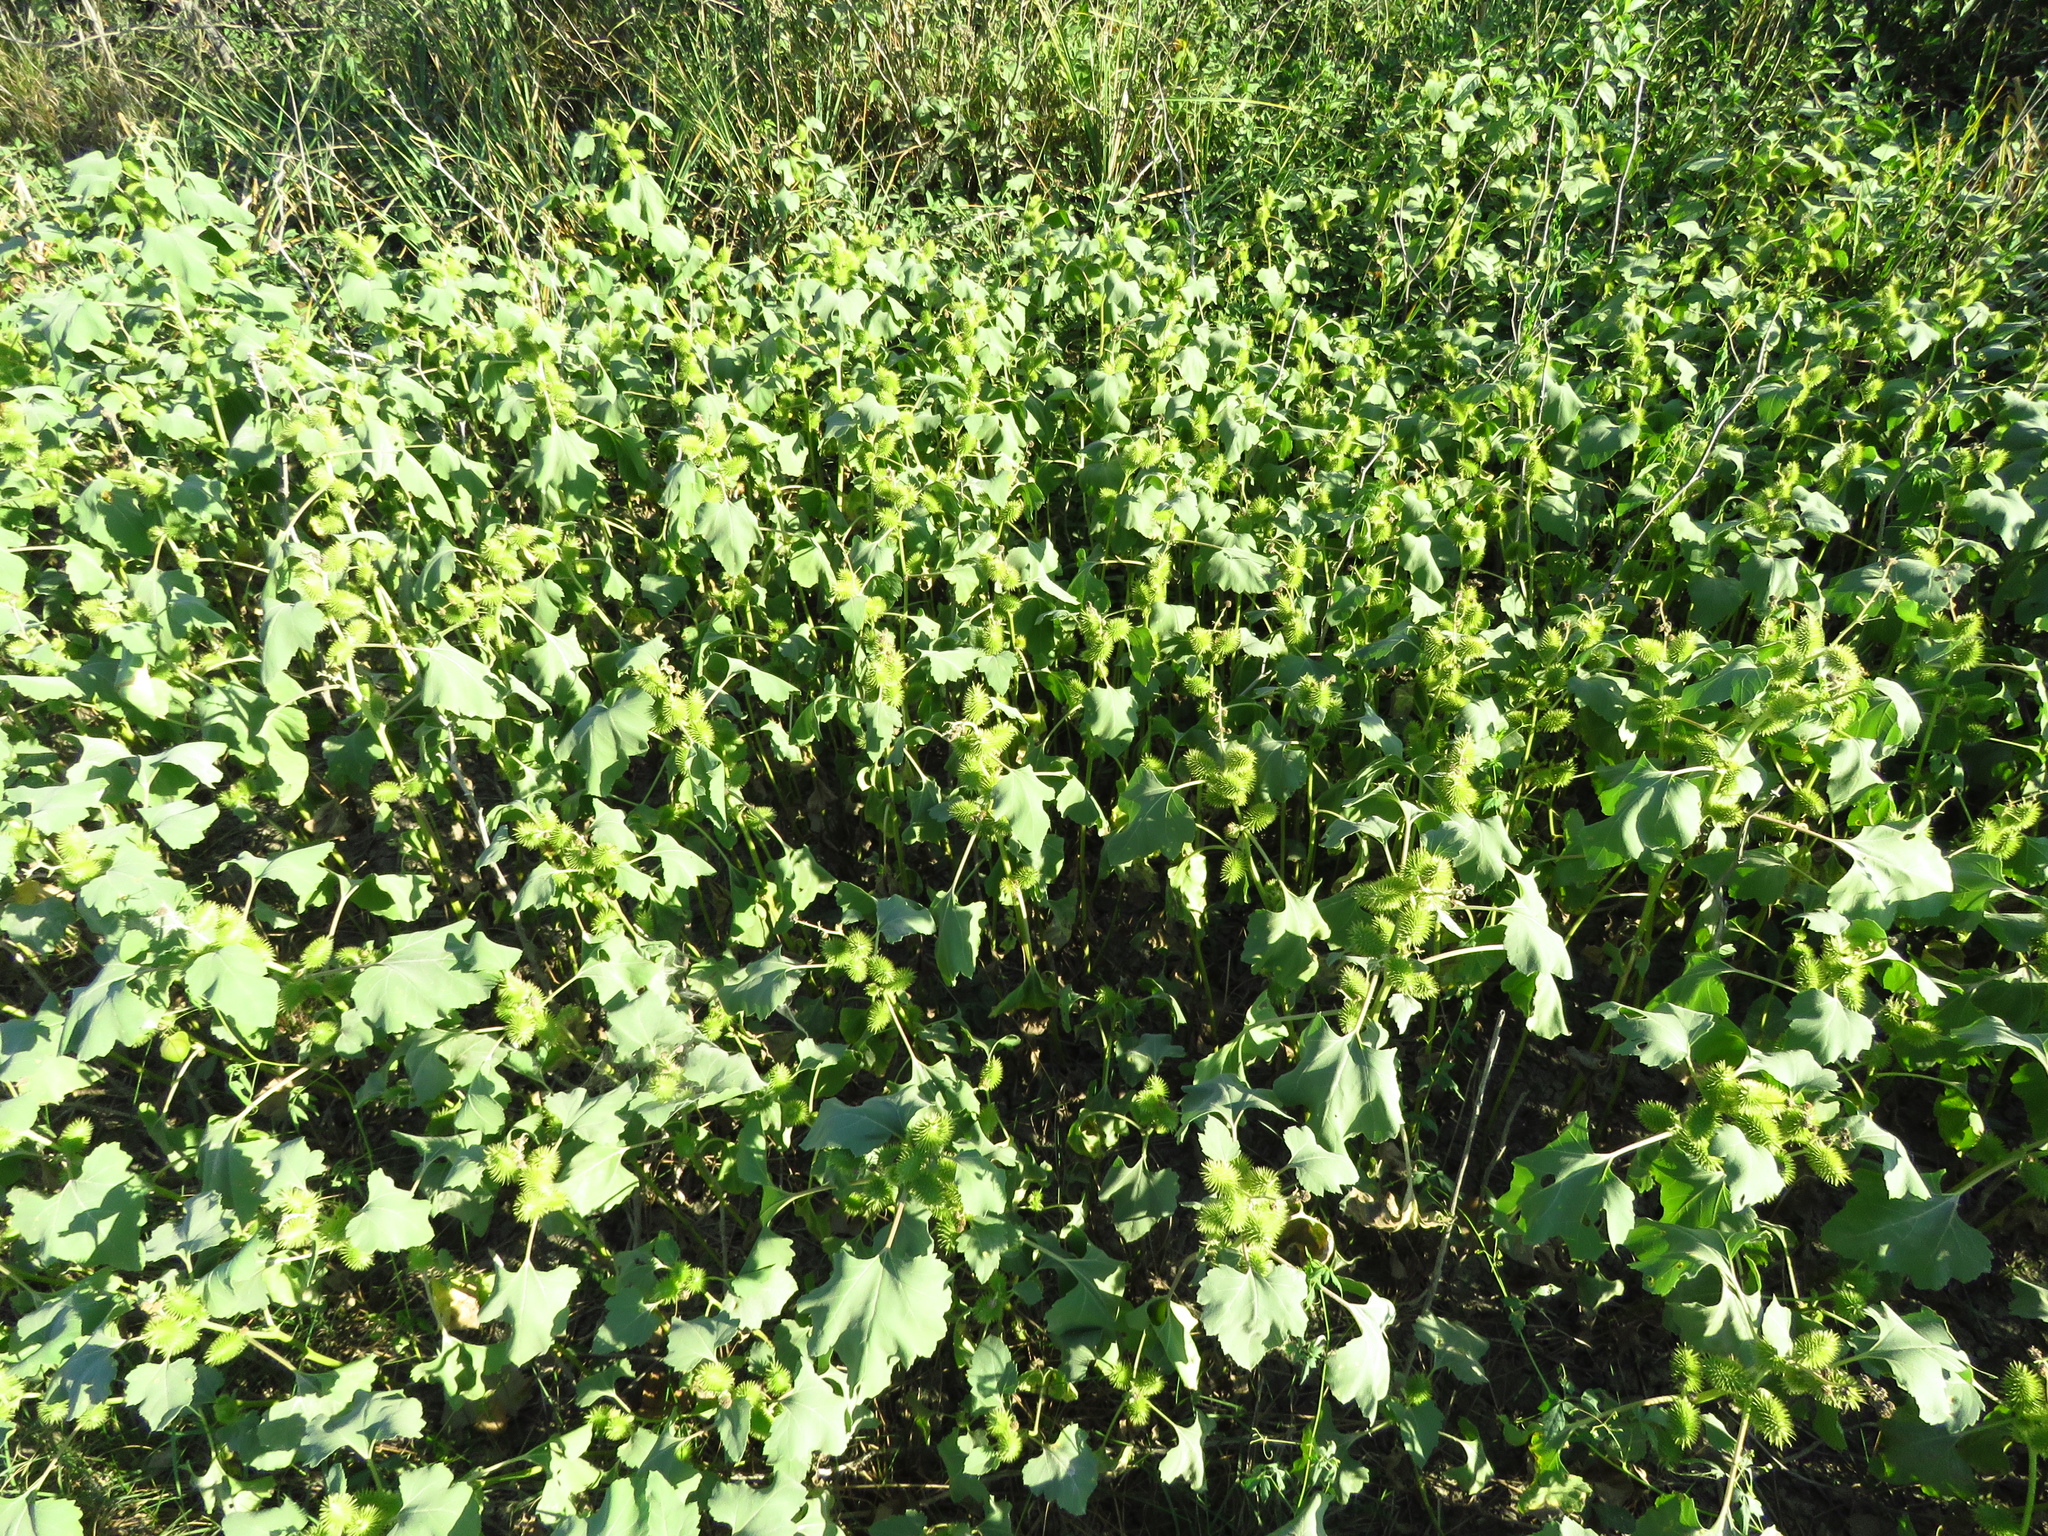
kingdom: Plantae
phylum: Tracheophyta
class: Magnoliopsida
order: Asterales
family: Asteraceae
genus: Xanthium
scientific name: Xanthium strumarium
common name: Rough cocklebur
